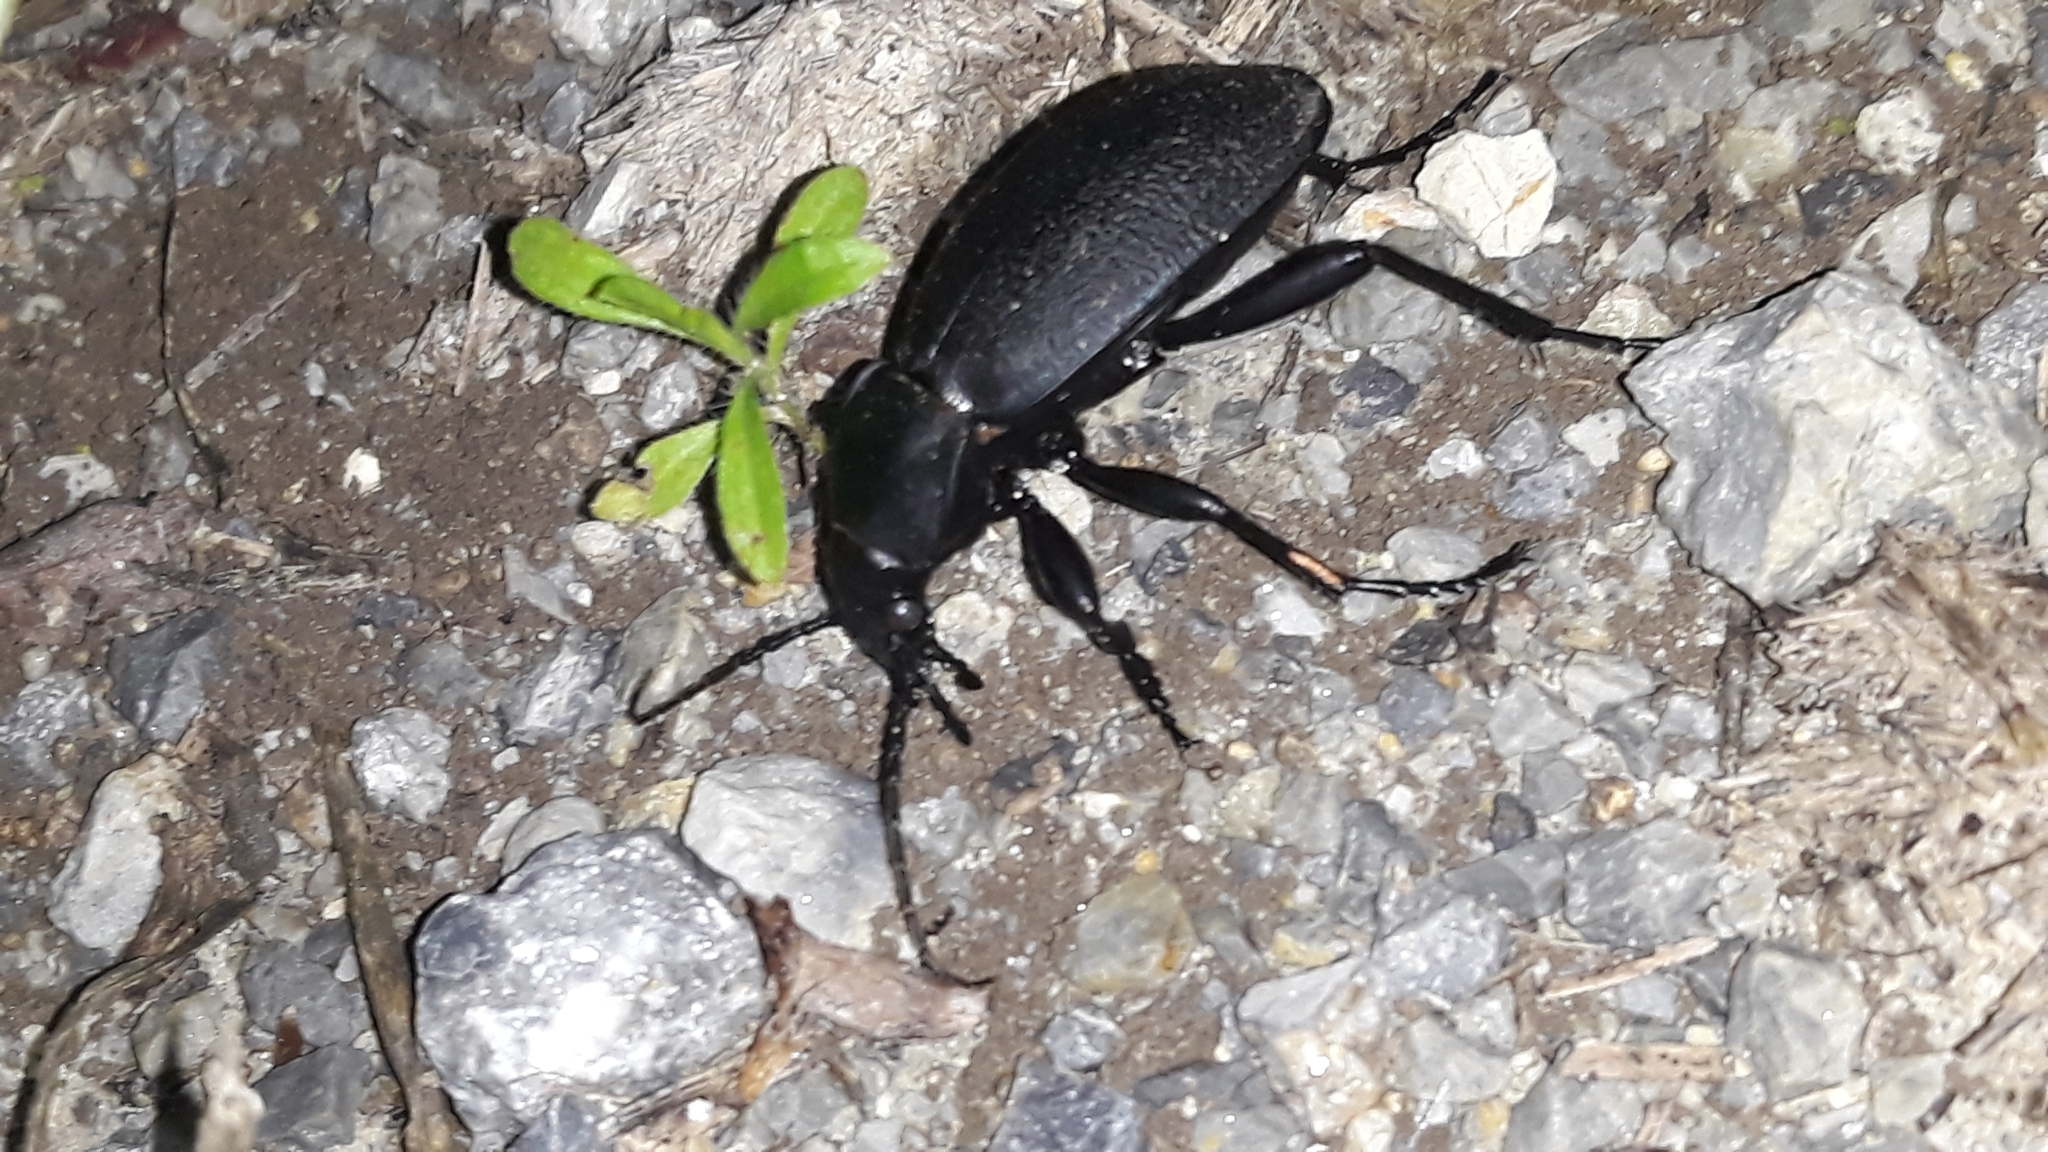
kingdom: Animalia
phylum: Arthropoda
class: Insecta
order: Coleoptera
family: Carabidae
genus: Carabus
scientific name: Carabus coriaceus
